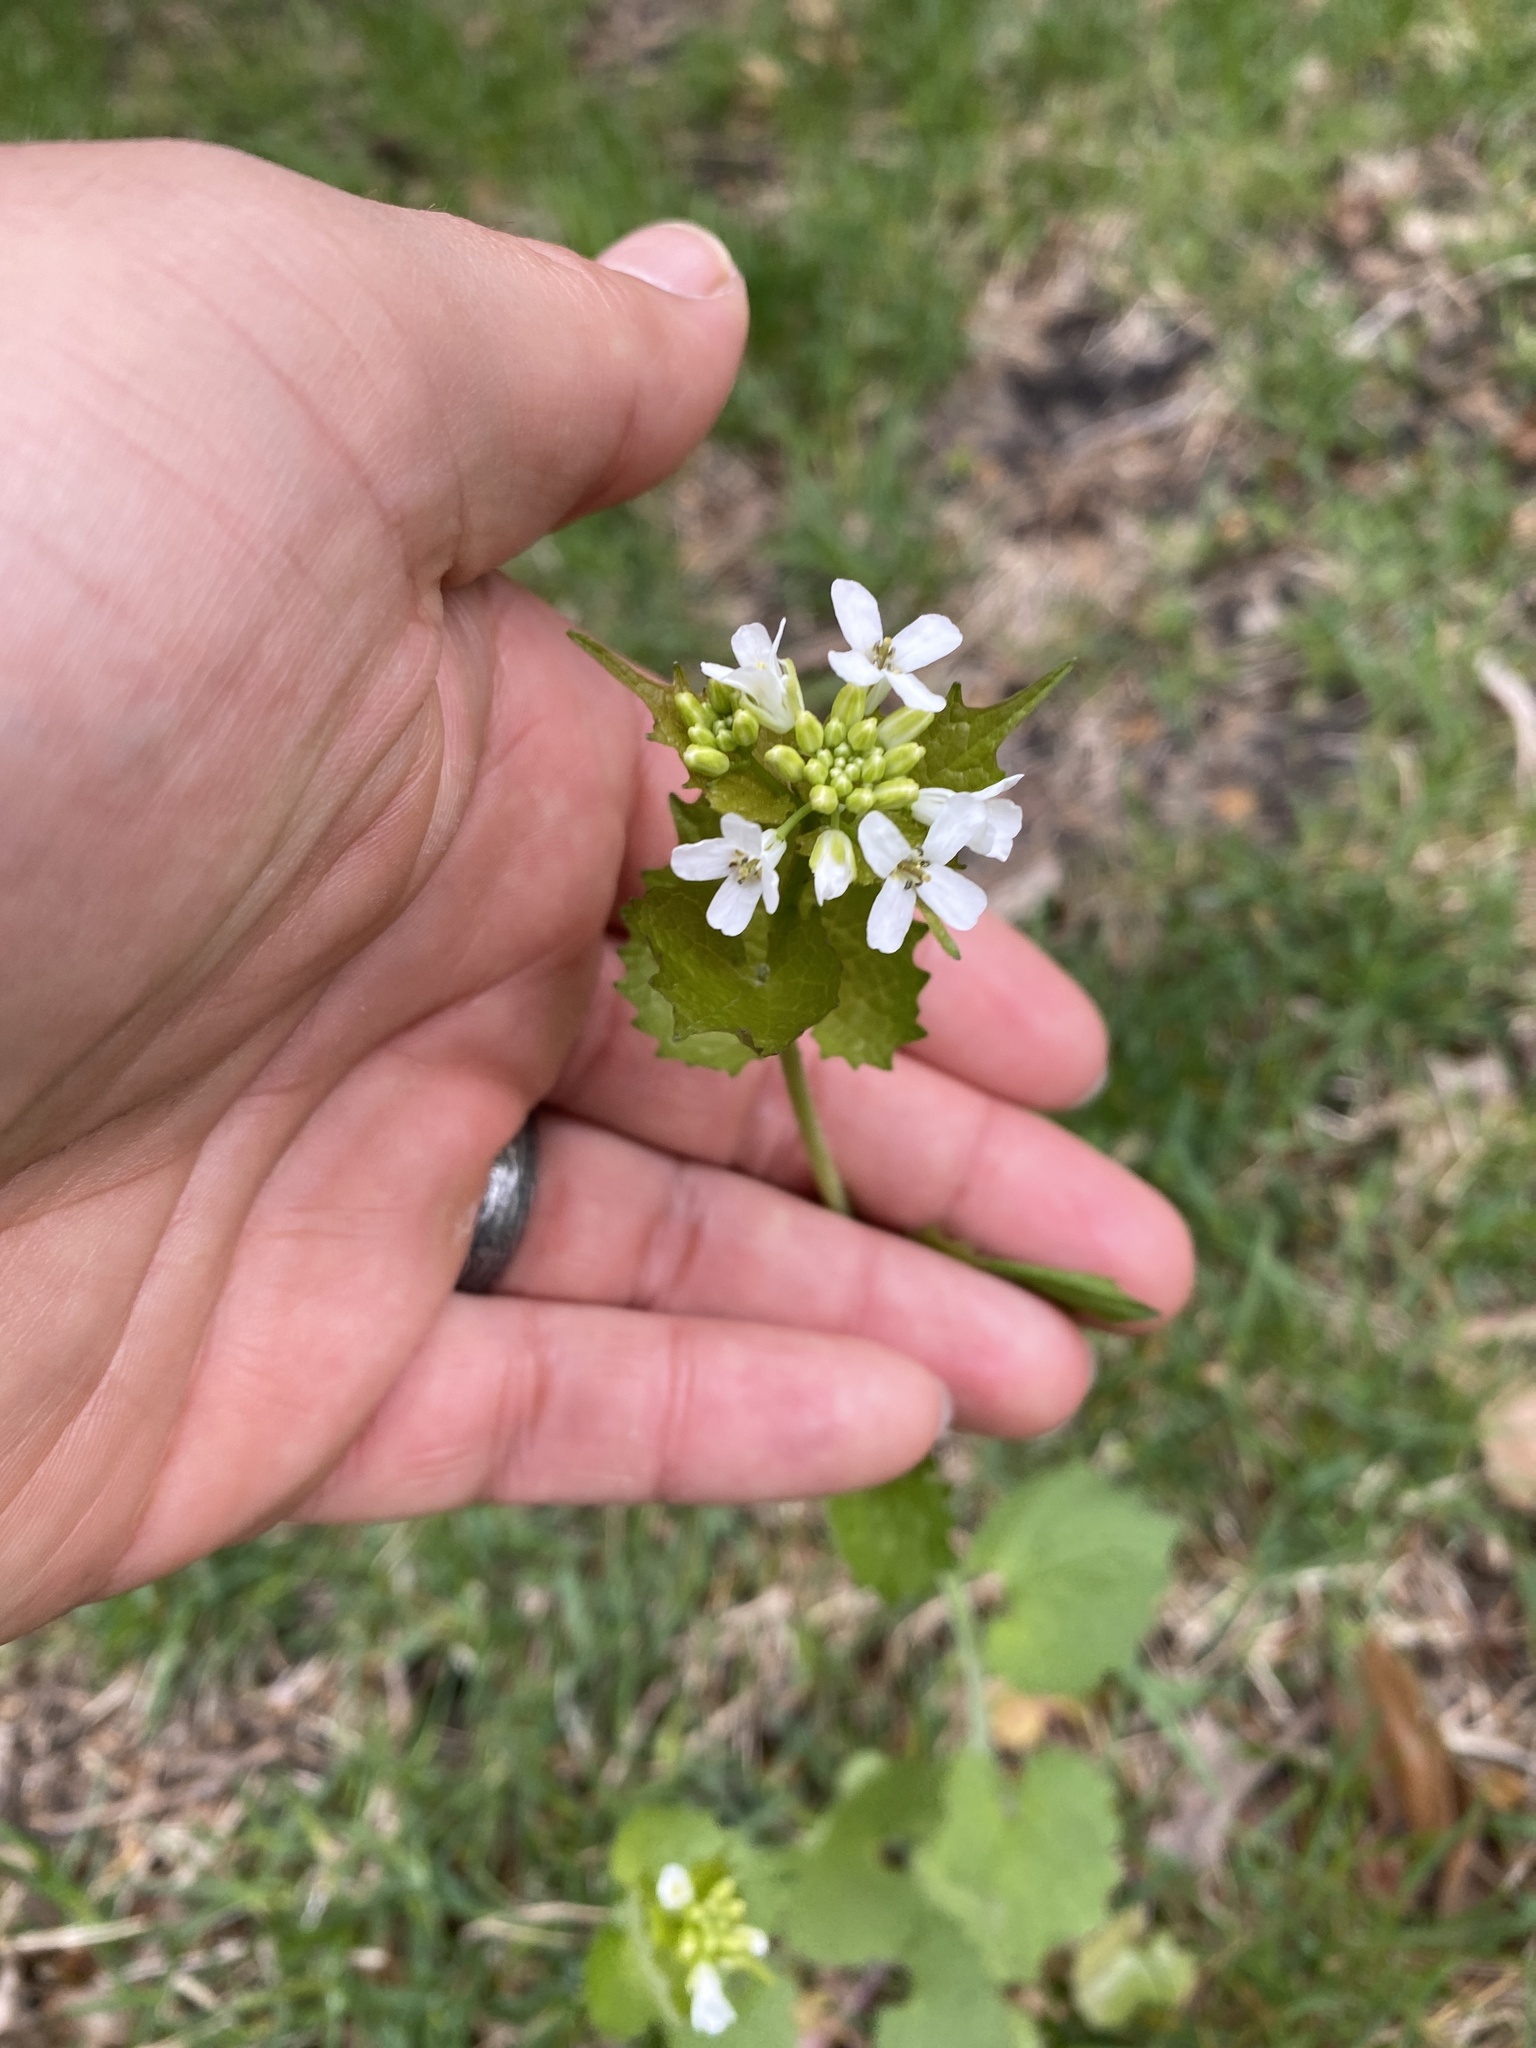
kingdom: Plantae
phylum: Tracheophyta
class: Magnoliopsida
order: Brassicales
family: Brassicaceae
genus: Alliaria
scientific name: Alliaria petiolata
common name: Garlic mustard
